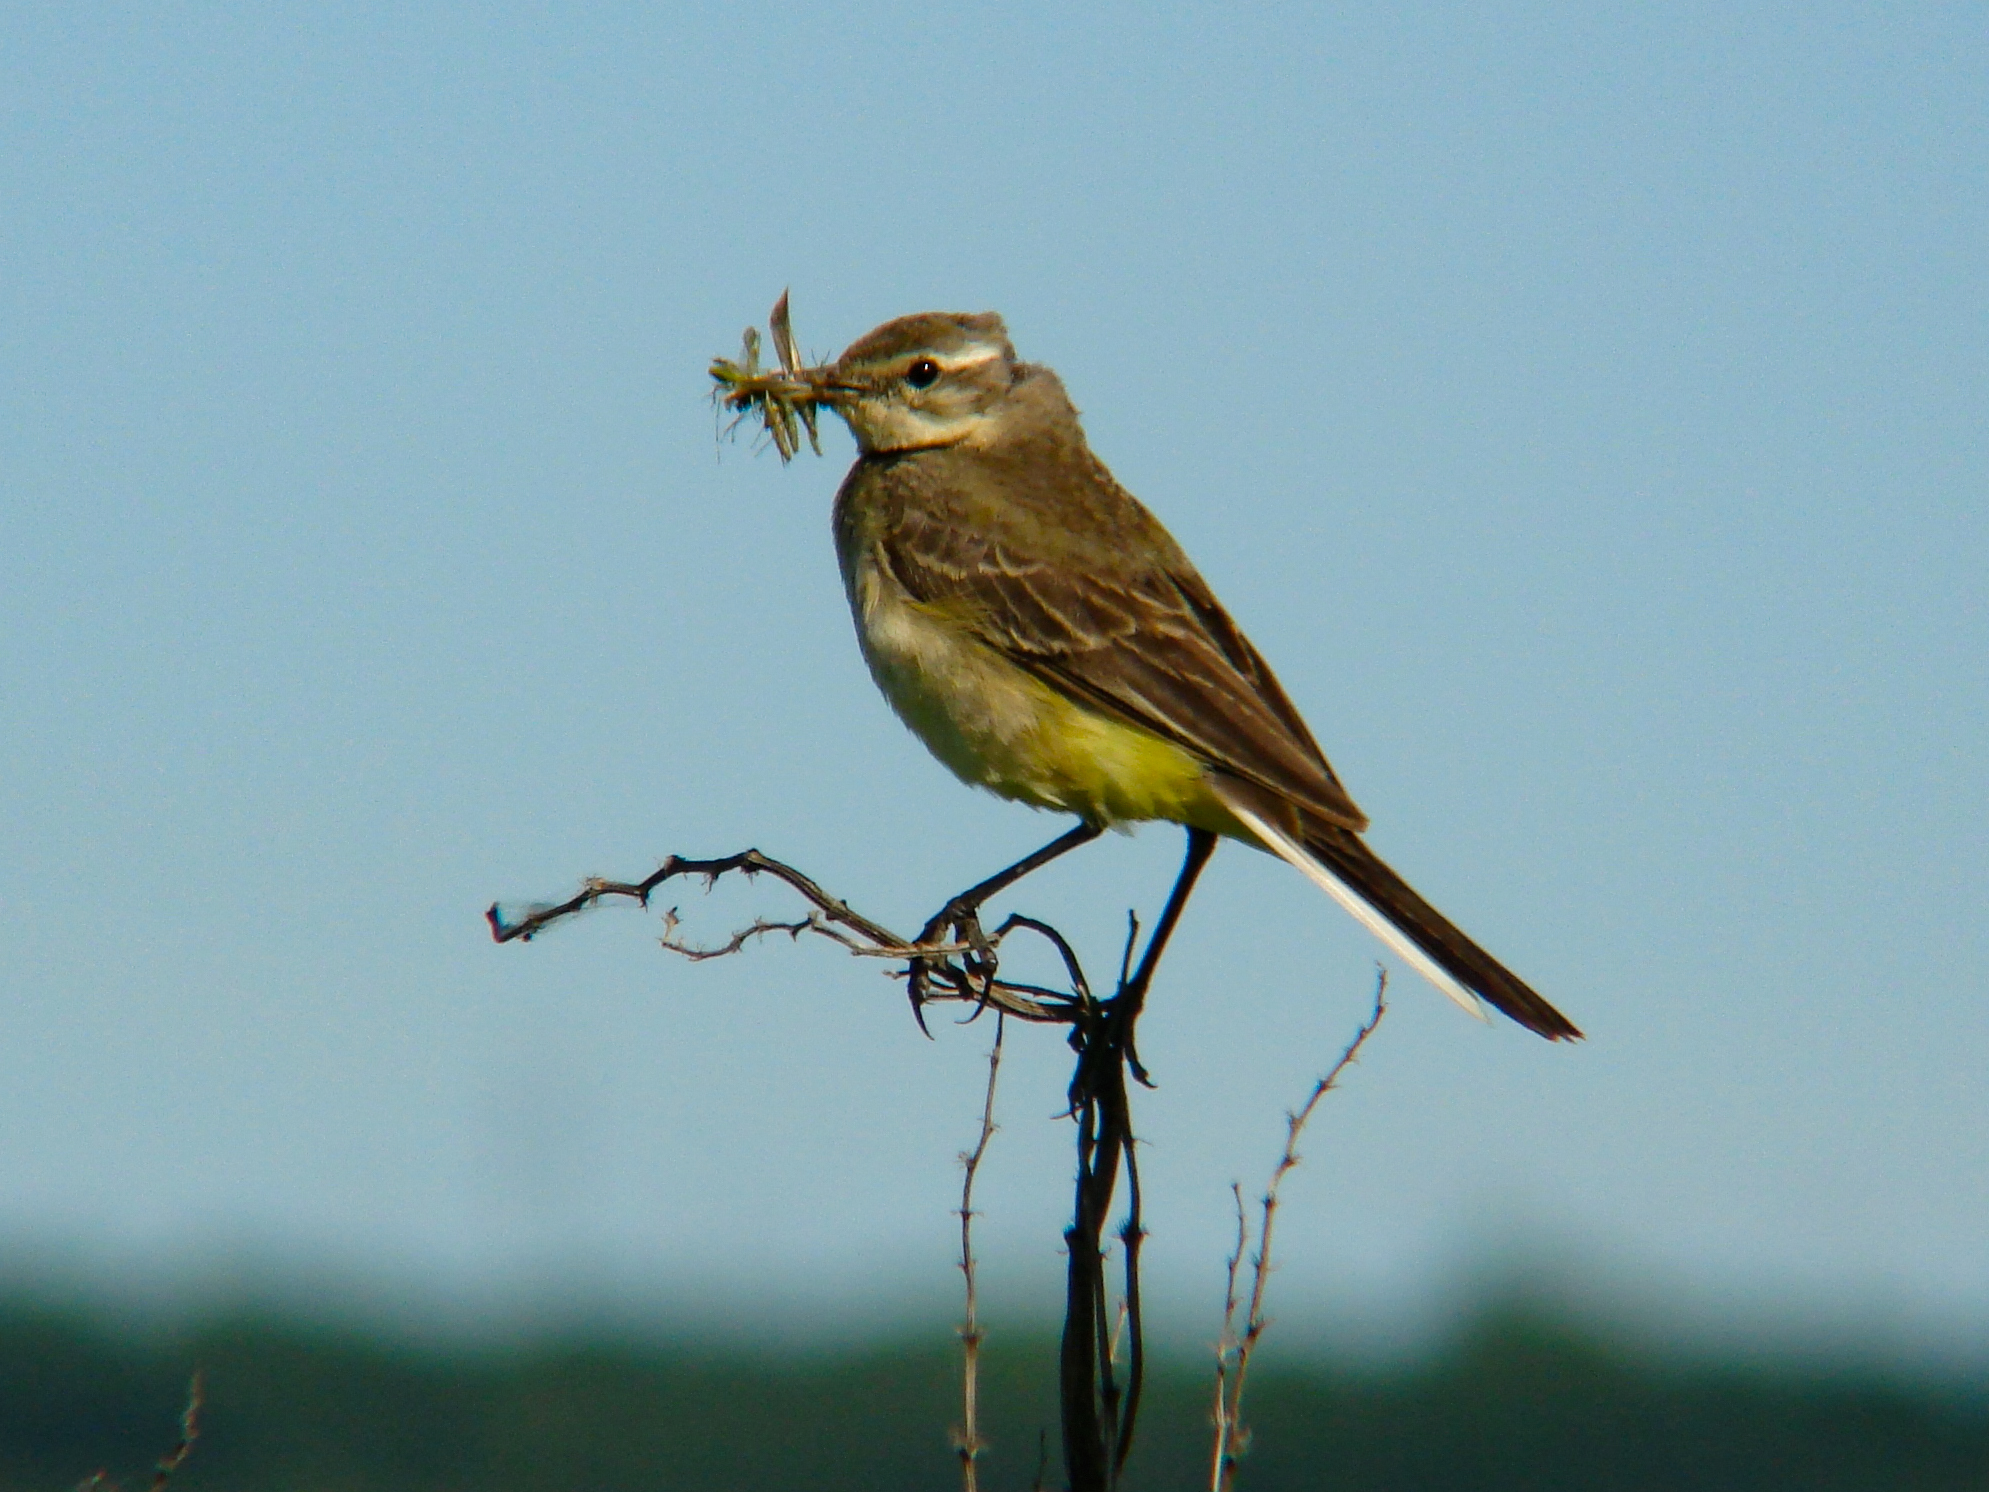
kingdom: Animalia
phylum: Chordata
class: Aves
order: Passeriformes
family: Motacillidae
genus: Motacilla
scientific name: Motacilla flava
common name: Western yellow wagtail
